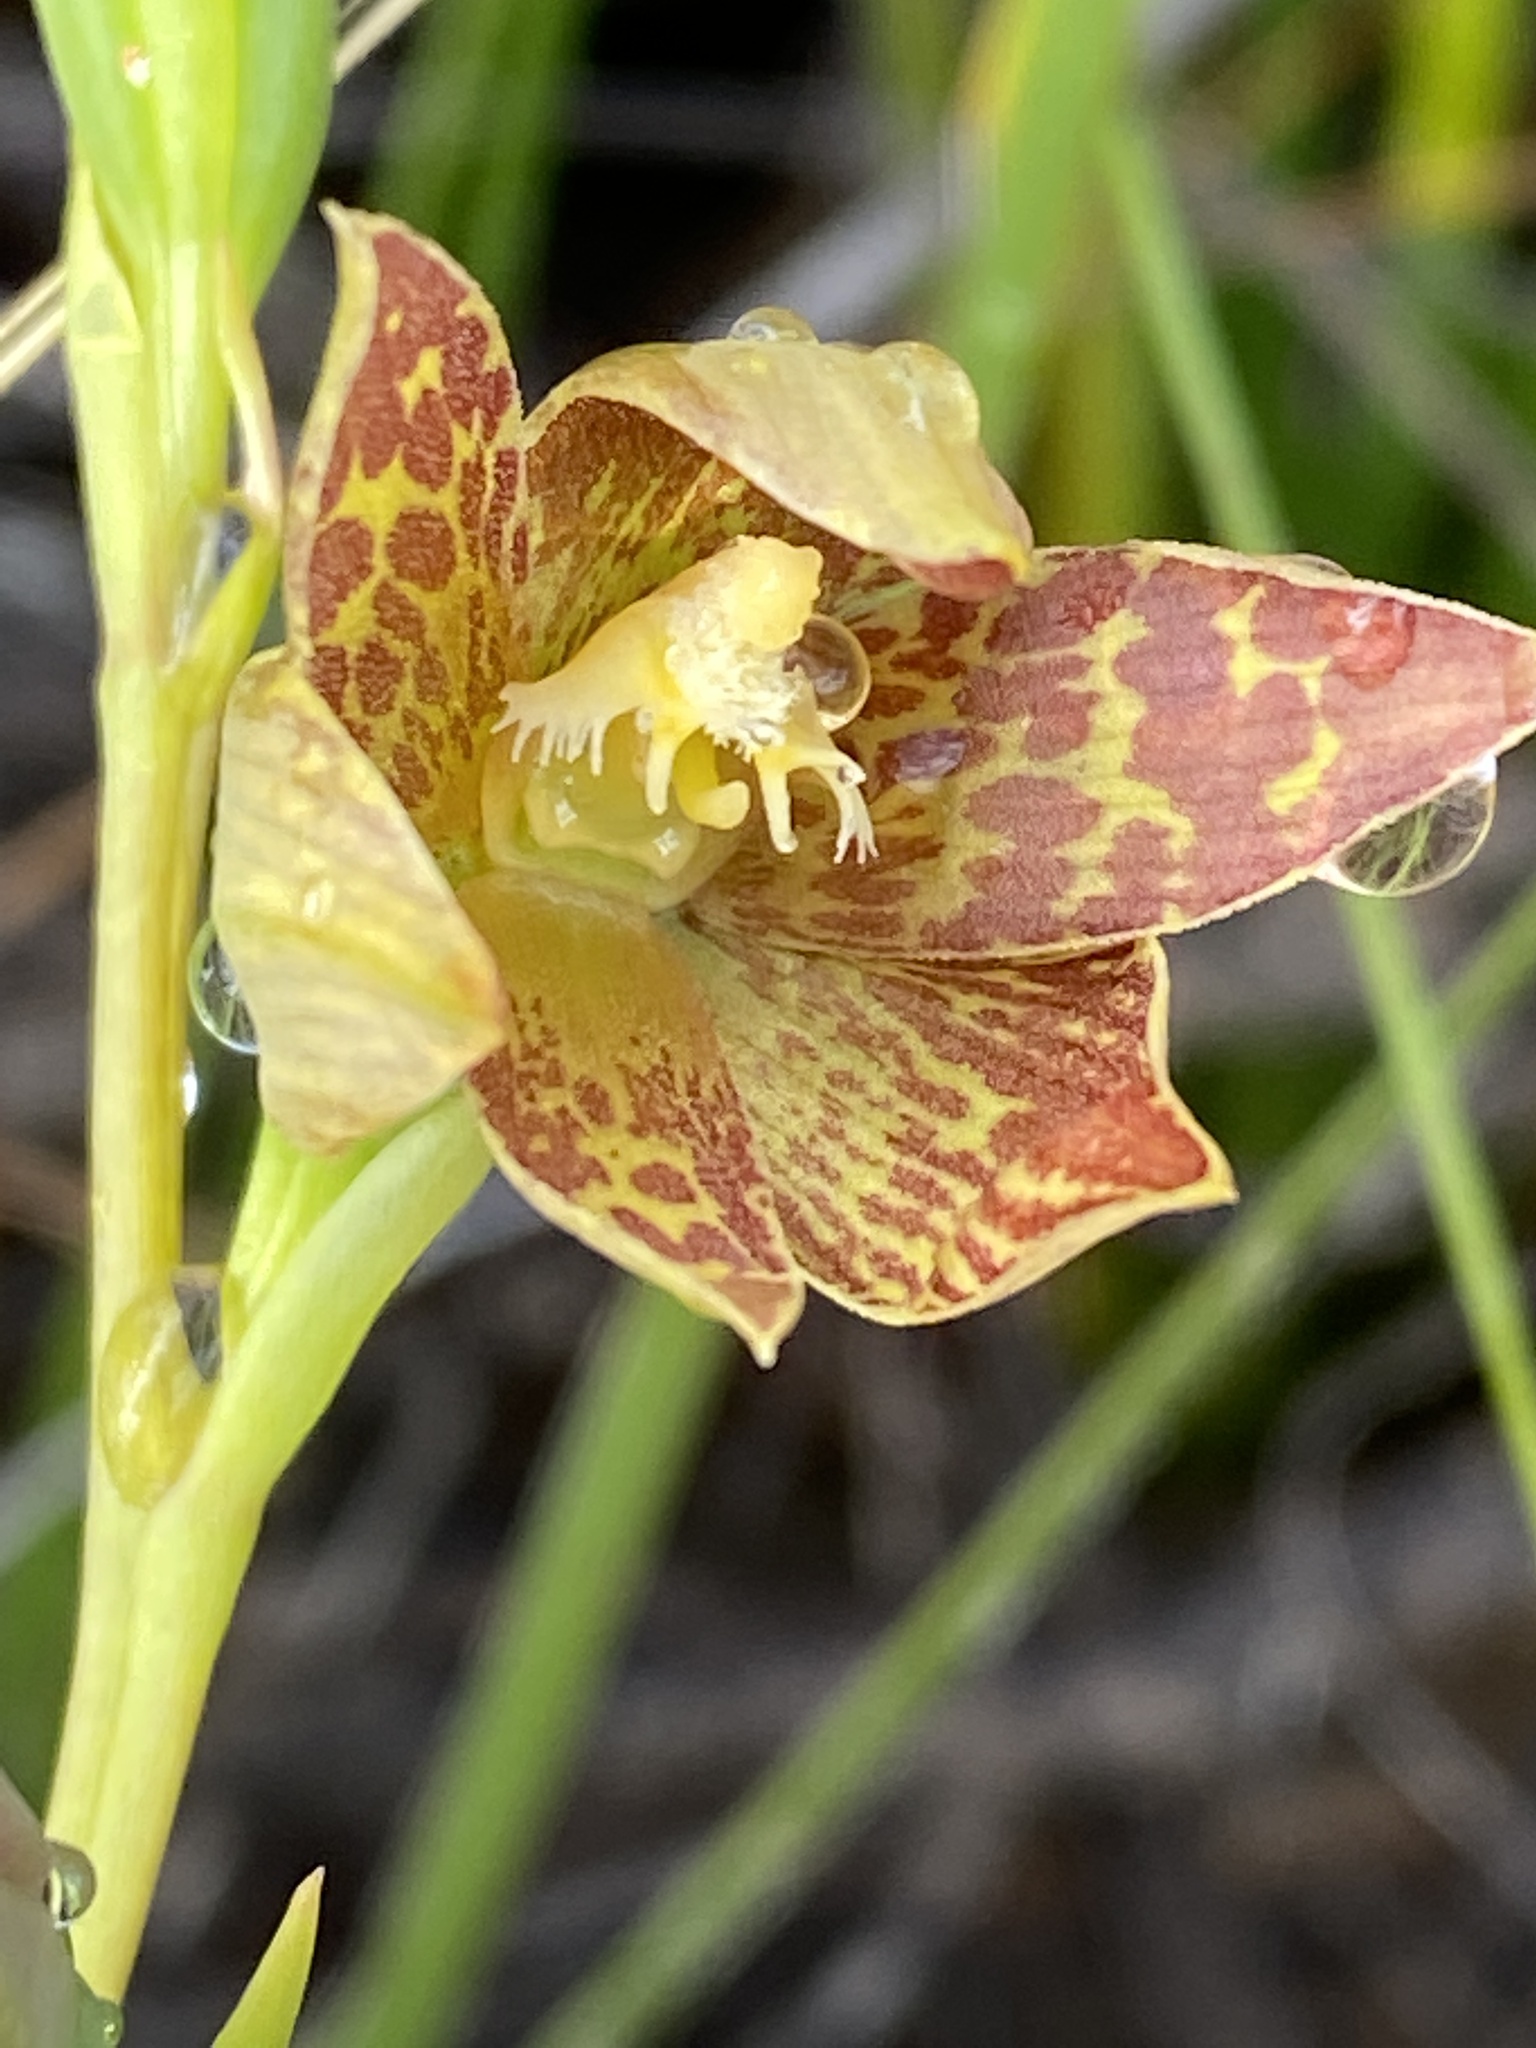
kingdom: Plantae
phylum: Tracheophyta
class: Liliopsida
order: Asparagales
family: Orchidaceae
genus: Thelymitra
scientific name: Thelymitra benthamiana
